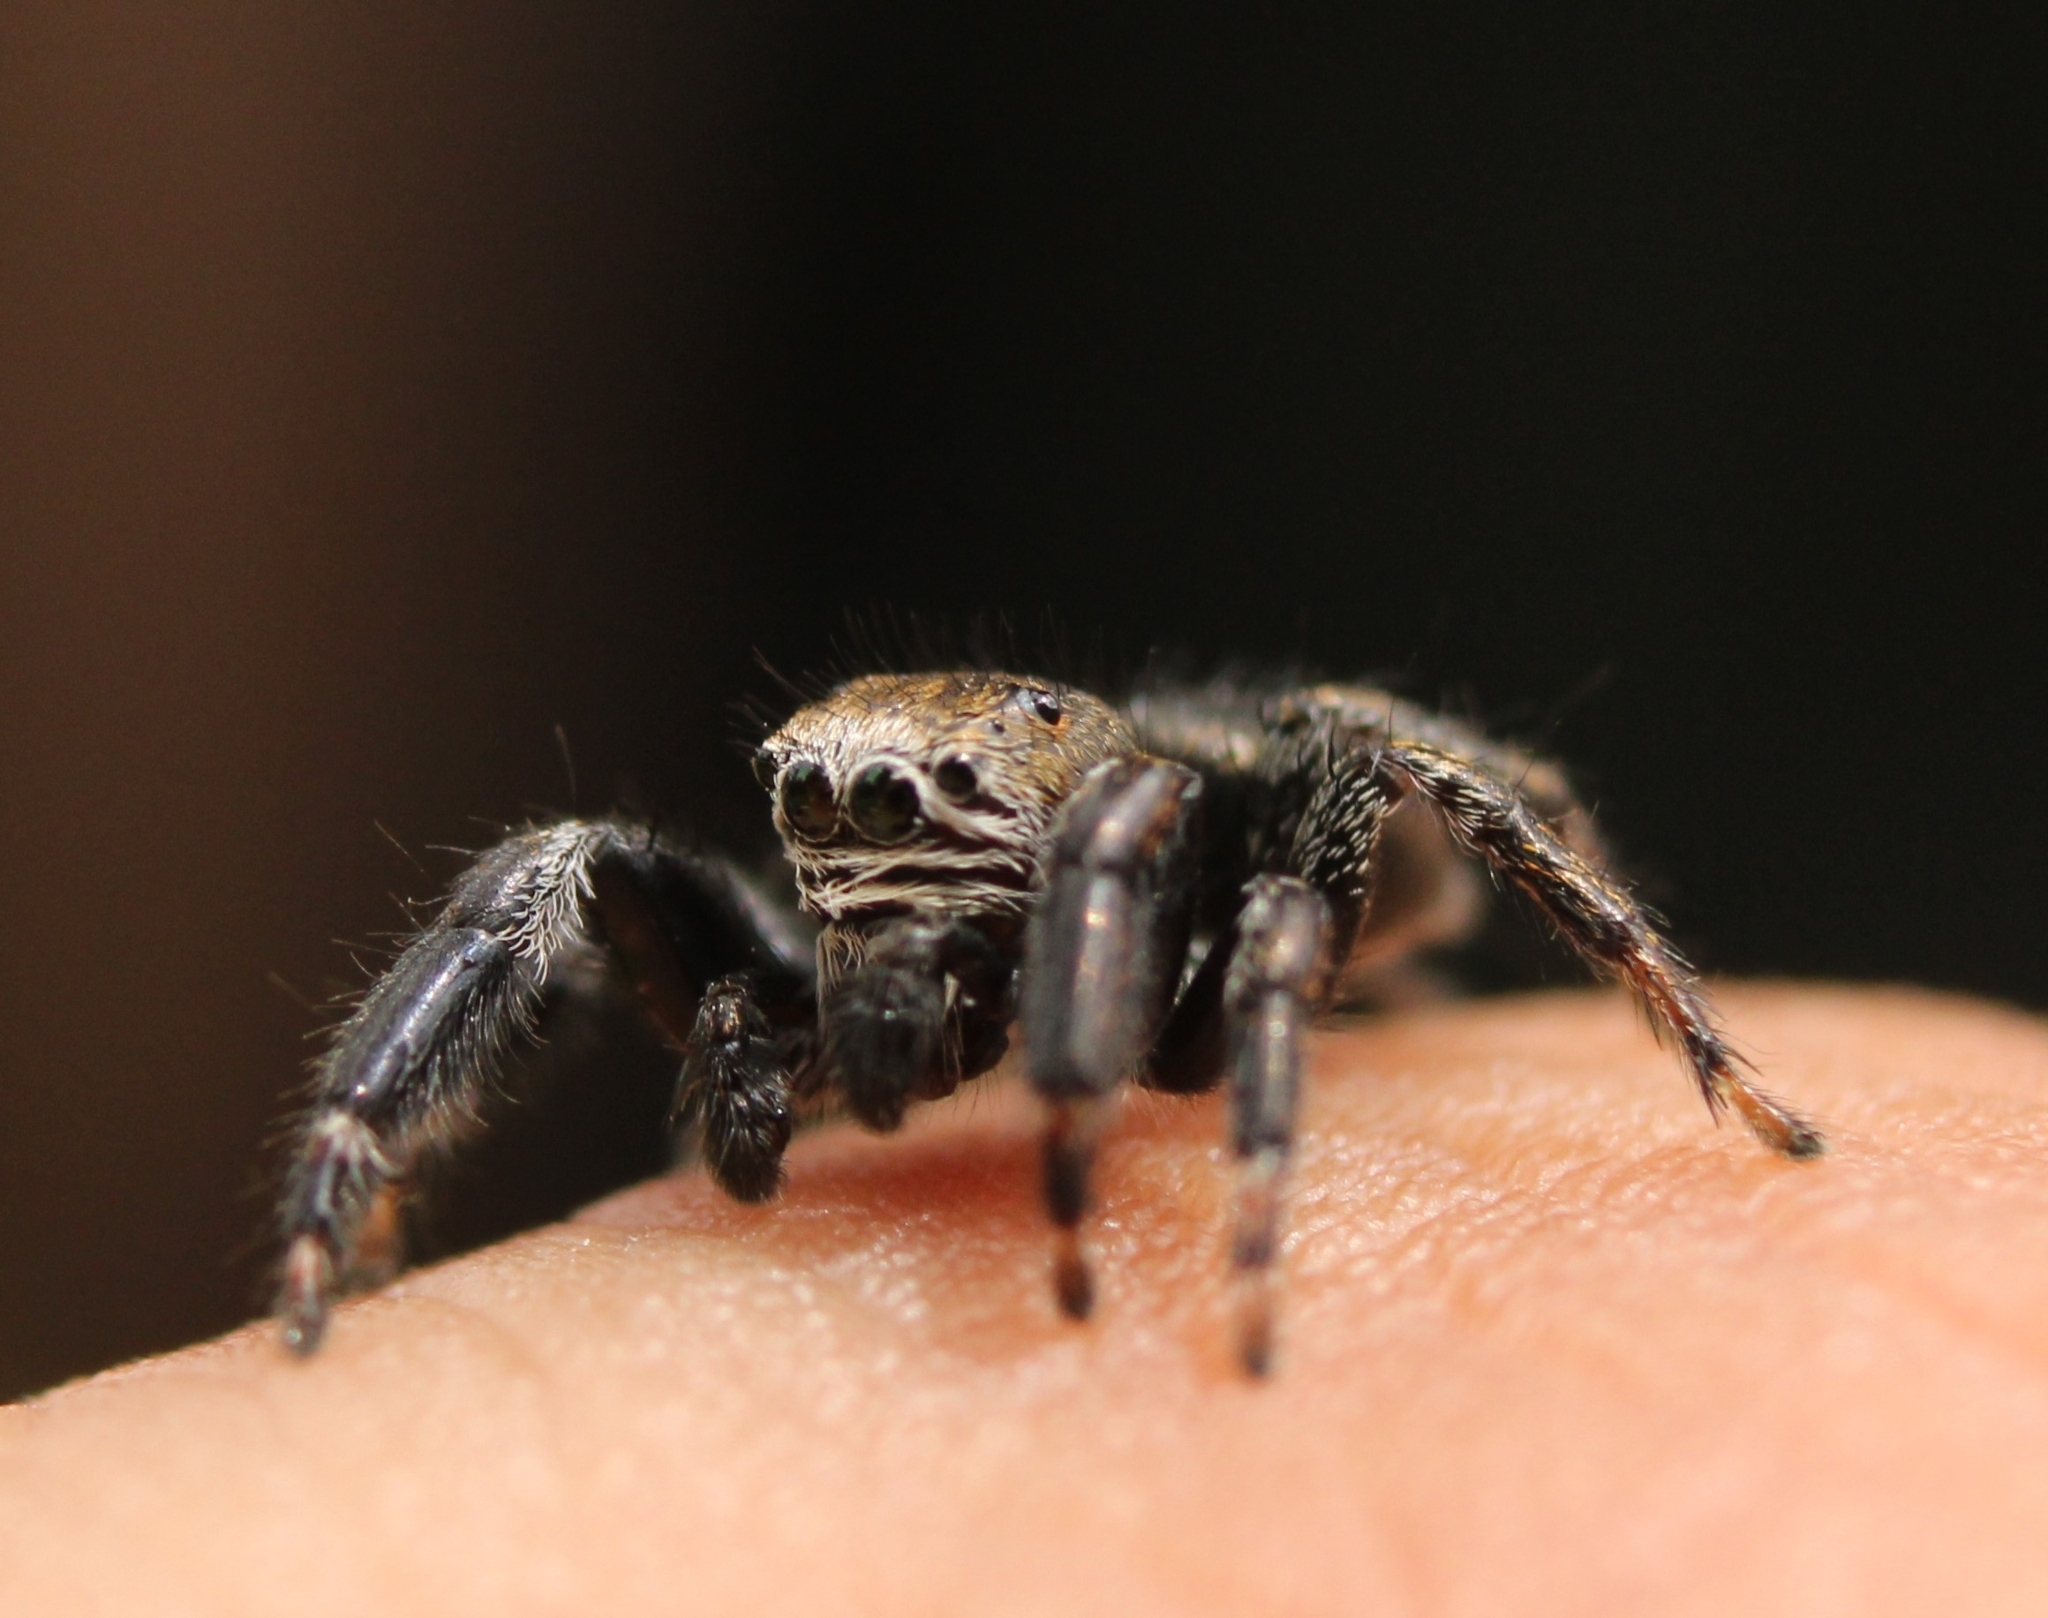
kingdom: Animalia
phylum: Arthropoda
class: Arachnida
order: Araneae
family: Salticidae
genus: Evarcha
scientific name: Evarcha arcuata
